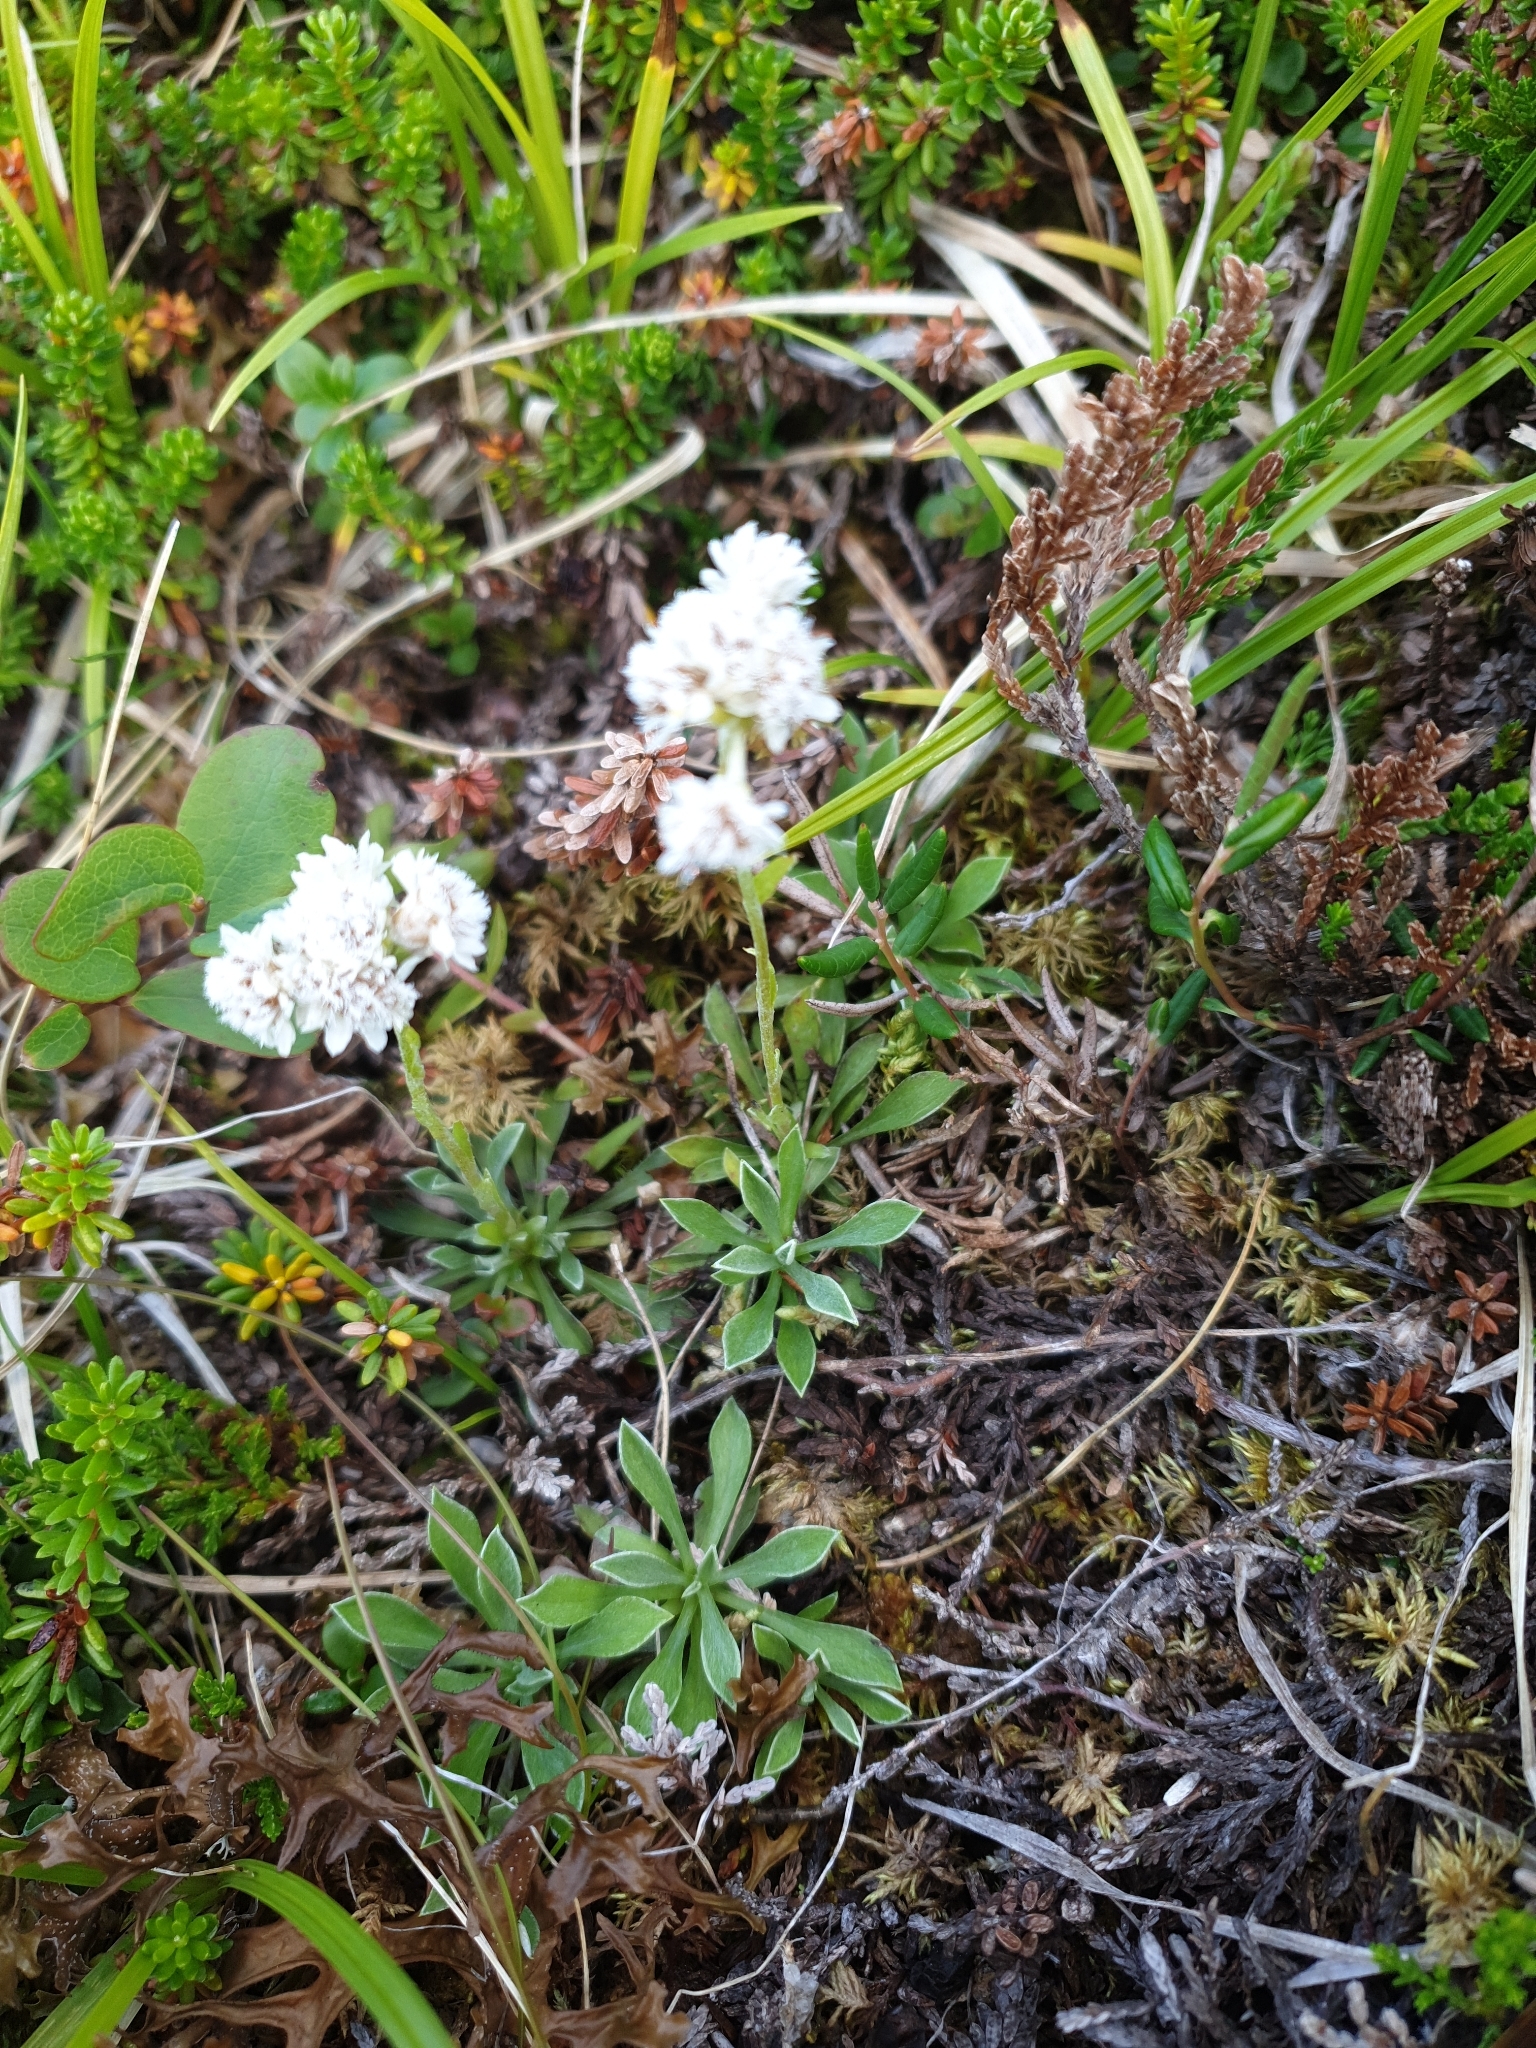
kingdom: Plantae
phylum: Tracheophyta
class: Magnoliopsida
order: Asterales
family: Asteraceae
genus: Antennaria
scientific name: Antennaria dioica
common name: Mountain everlasting
